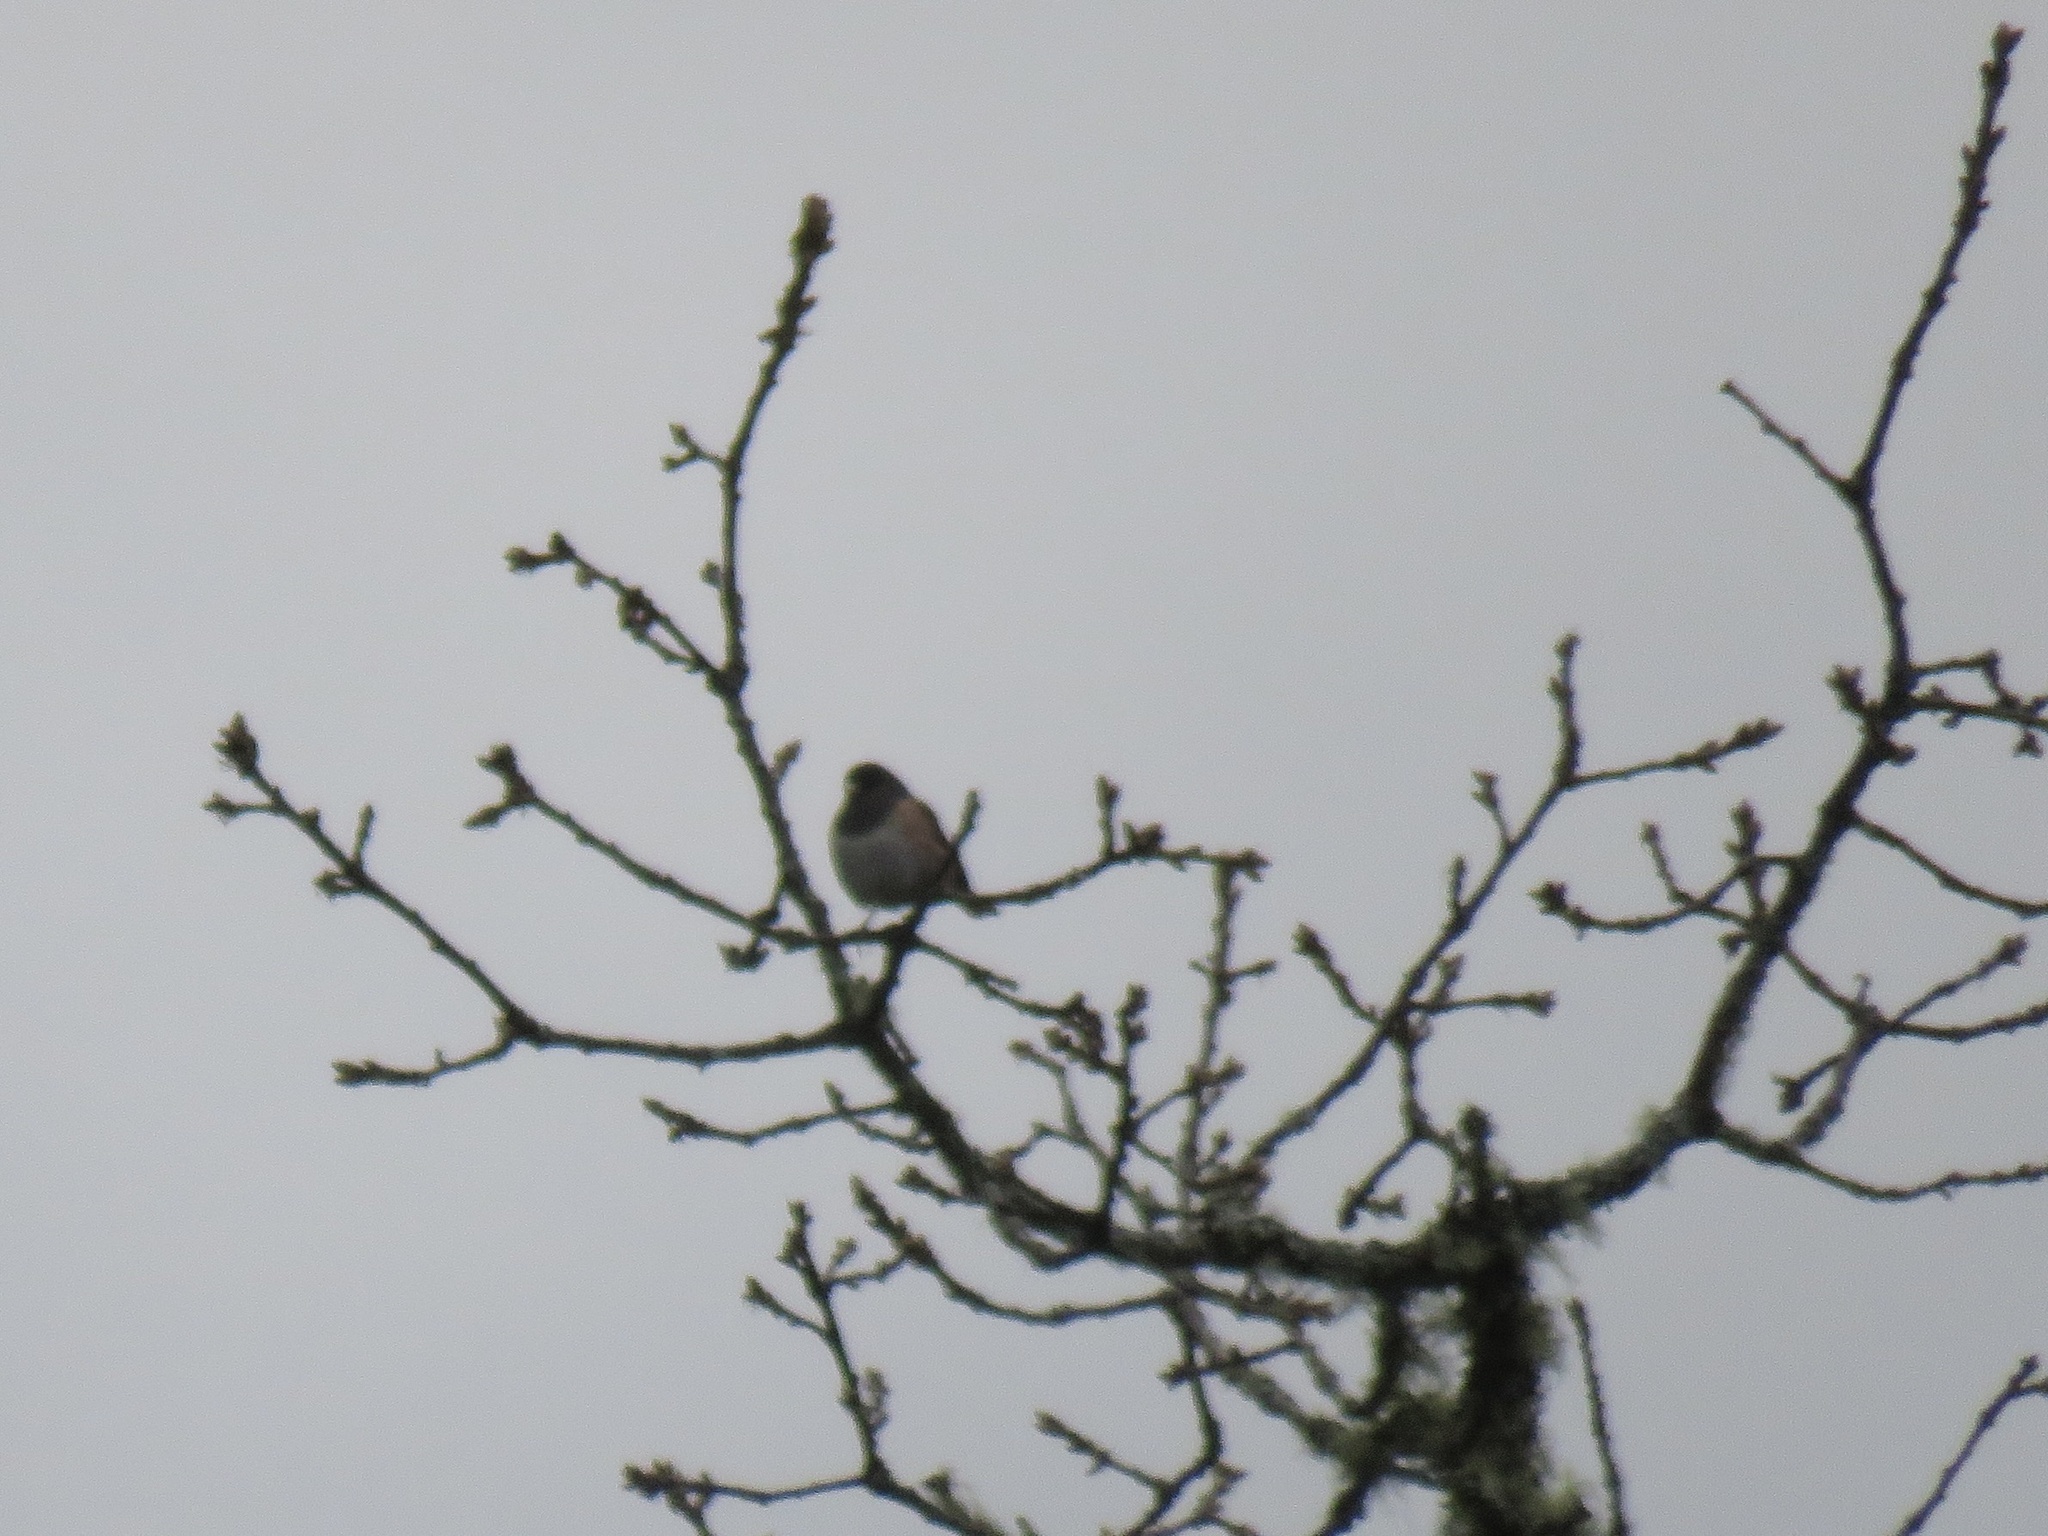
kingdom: Animalia
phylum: Chordata
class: Aves
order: Passeriformes
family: Passerellidae
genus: Junco
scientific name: Junco hyemalis
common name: Dark-eyed junco
